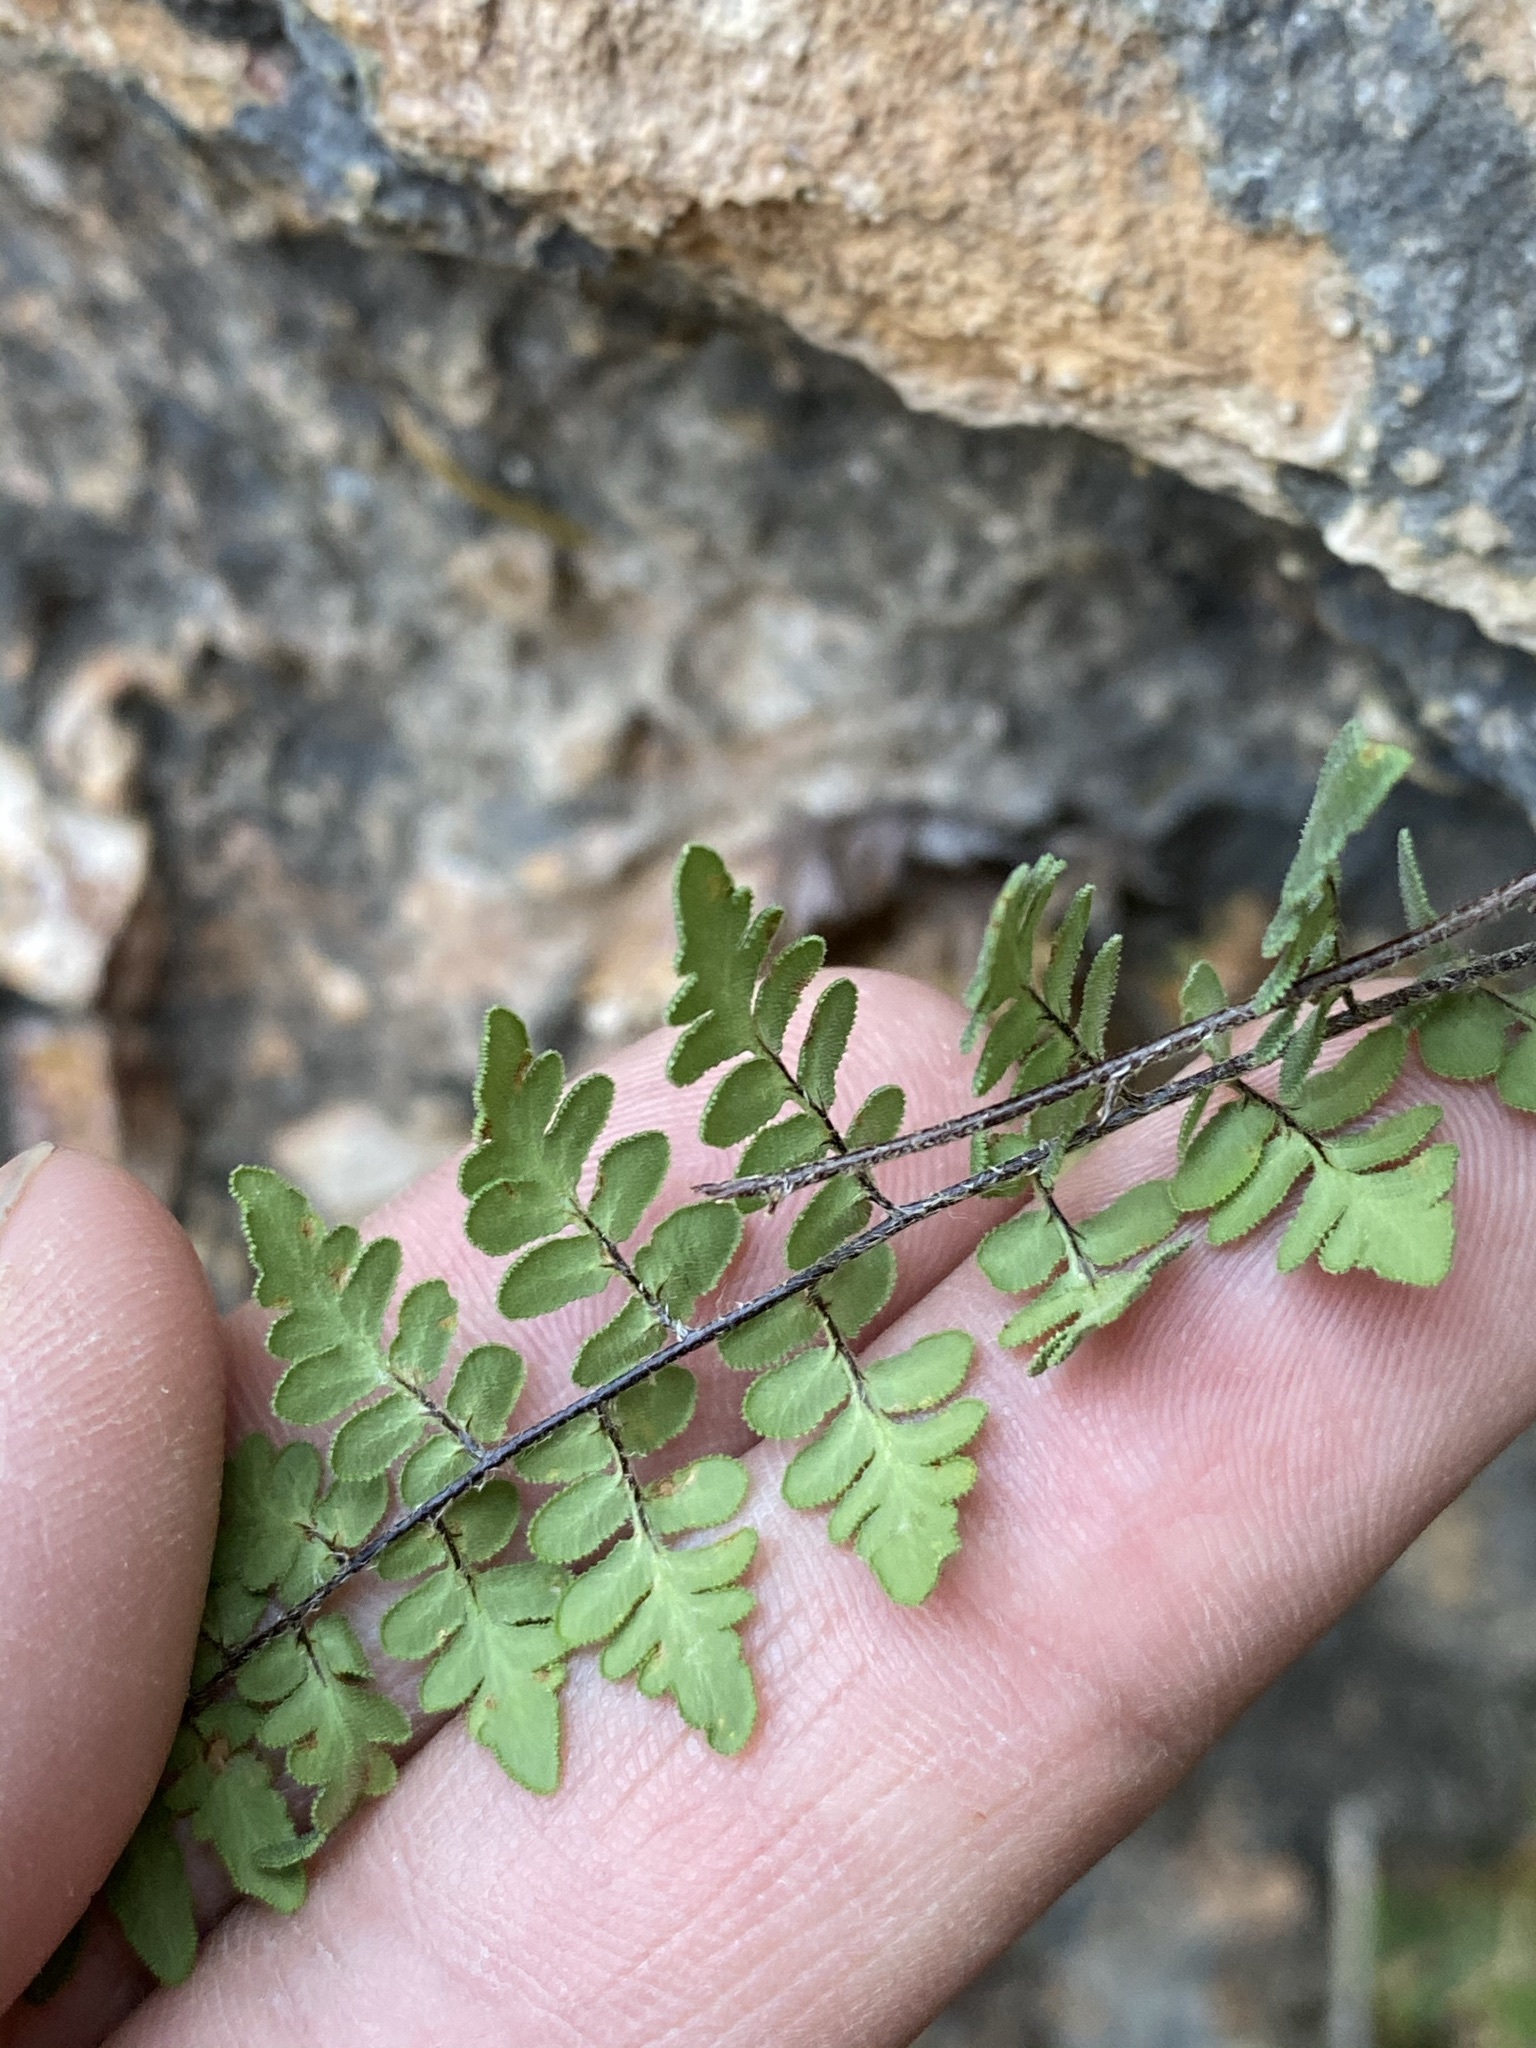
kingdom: Plantae
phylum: Tracheophyta
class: Polypodiopsida
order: Polypodiales
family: Pteridaceae
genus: Myriopteris
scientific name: Myriopteris scabra
